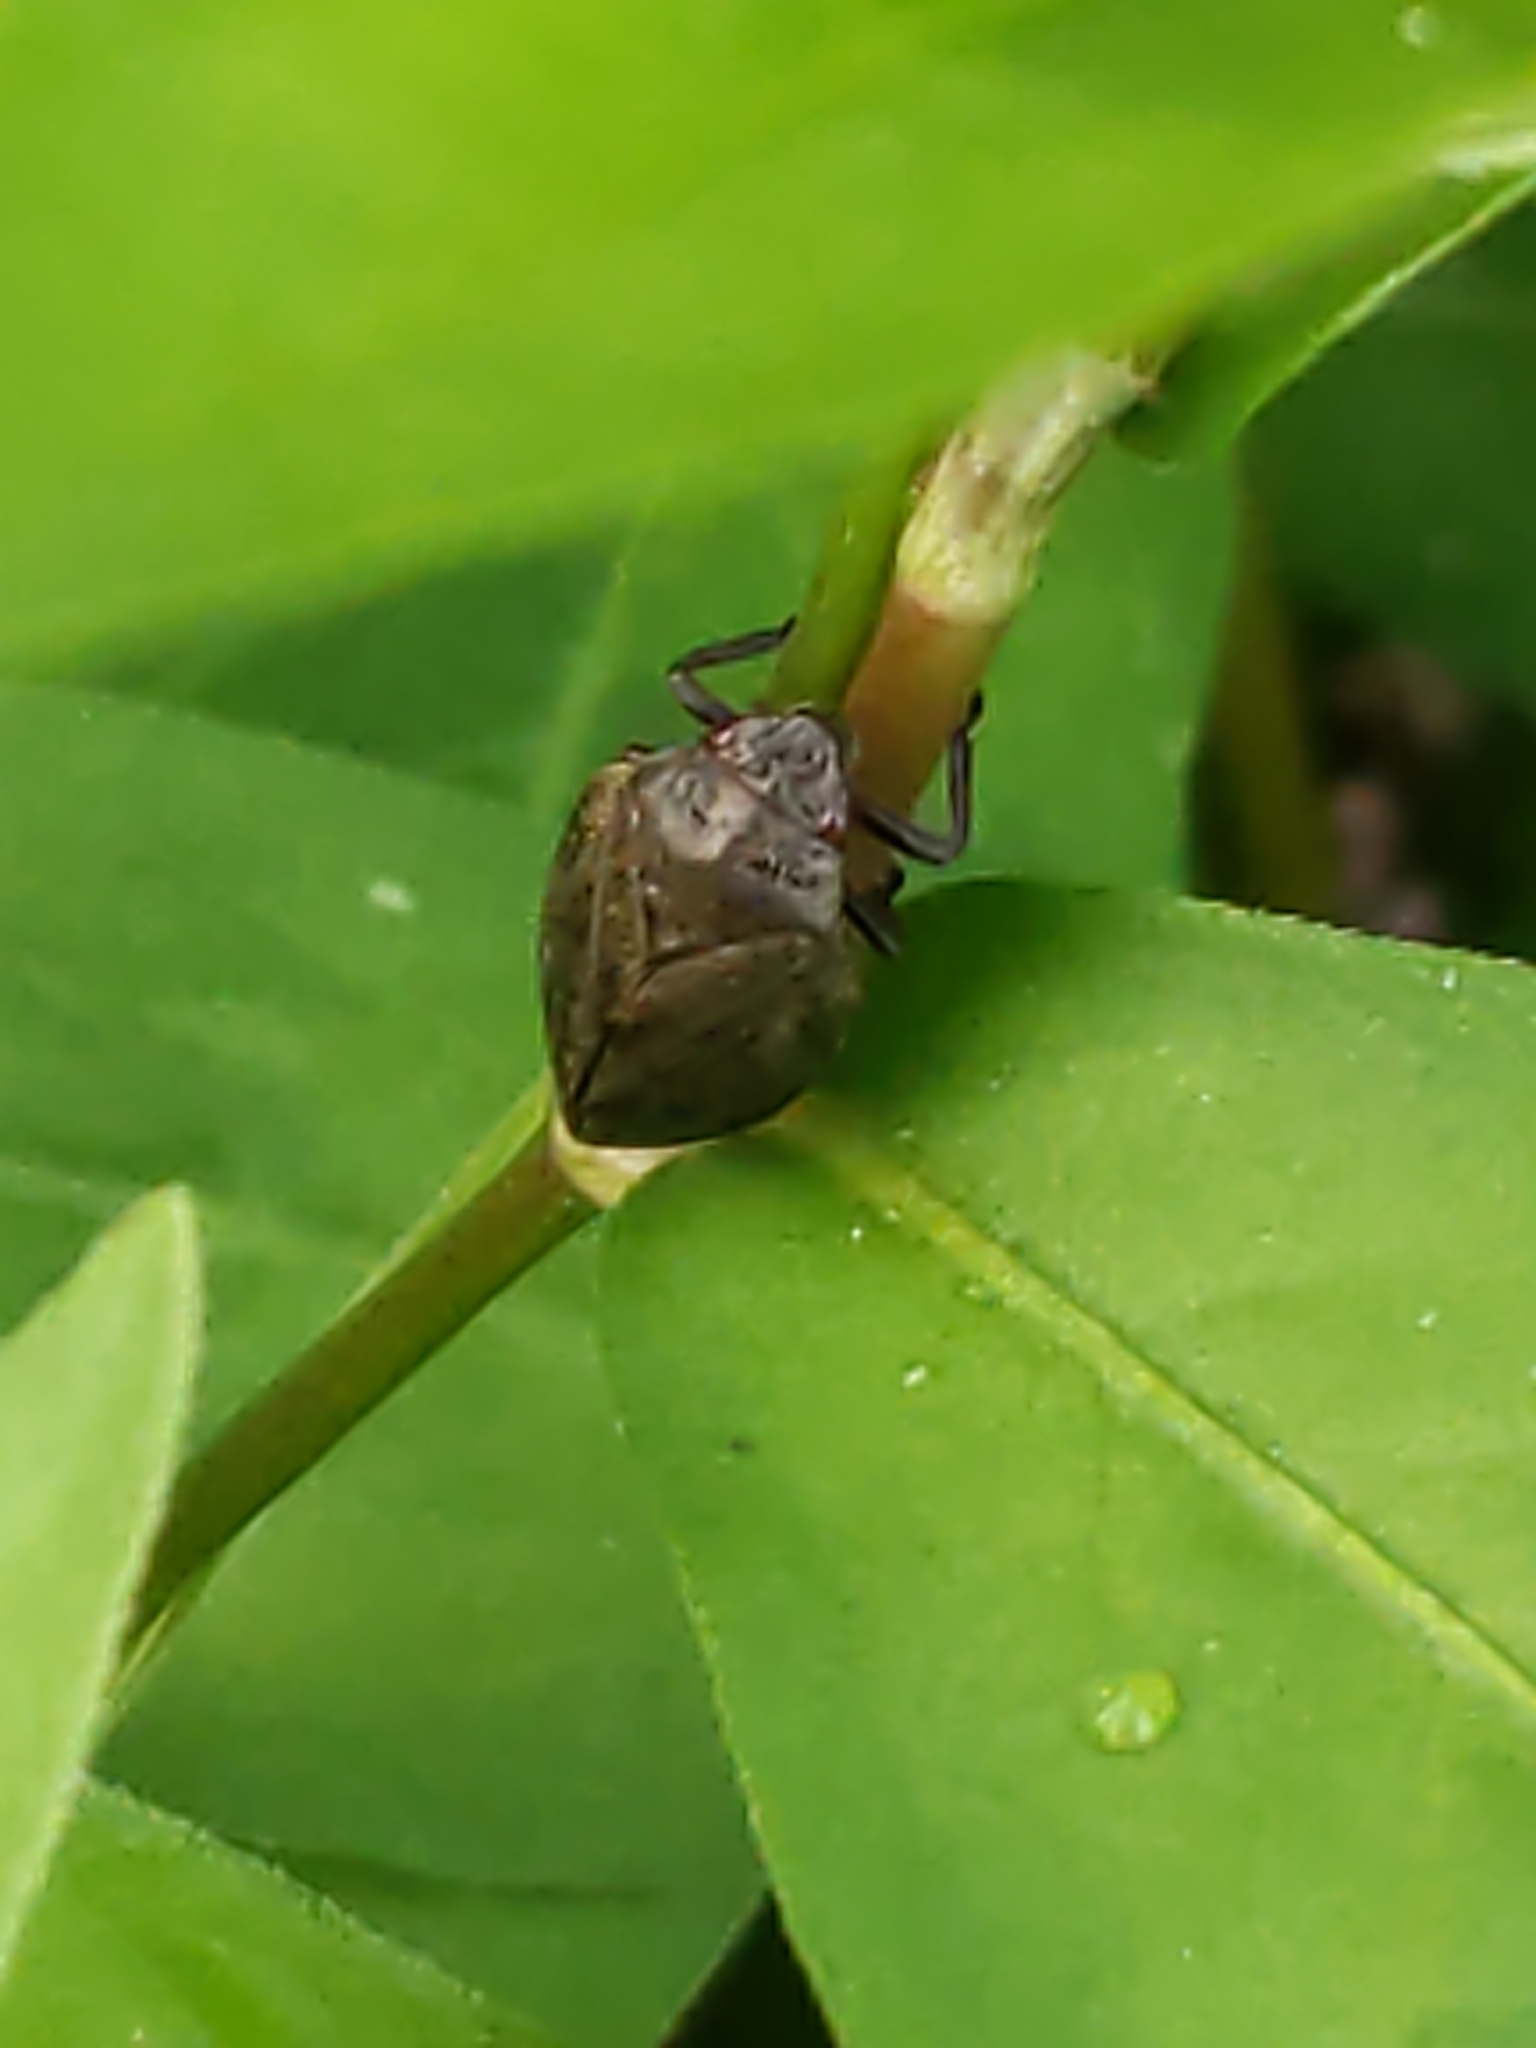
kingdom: Animalia
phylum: Arthropoda
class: Insecta
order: Hemiptera
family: Cercopidae
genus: Prosapia
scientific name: Prosapia
